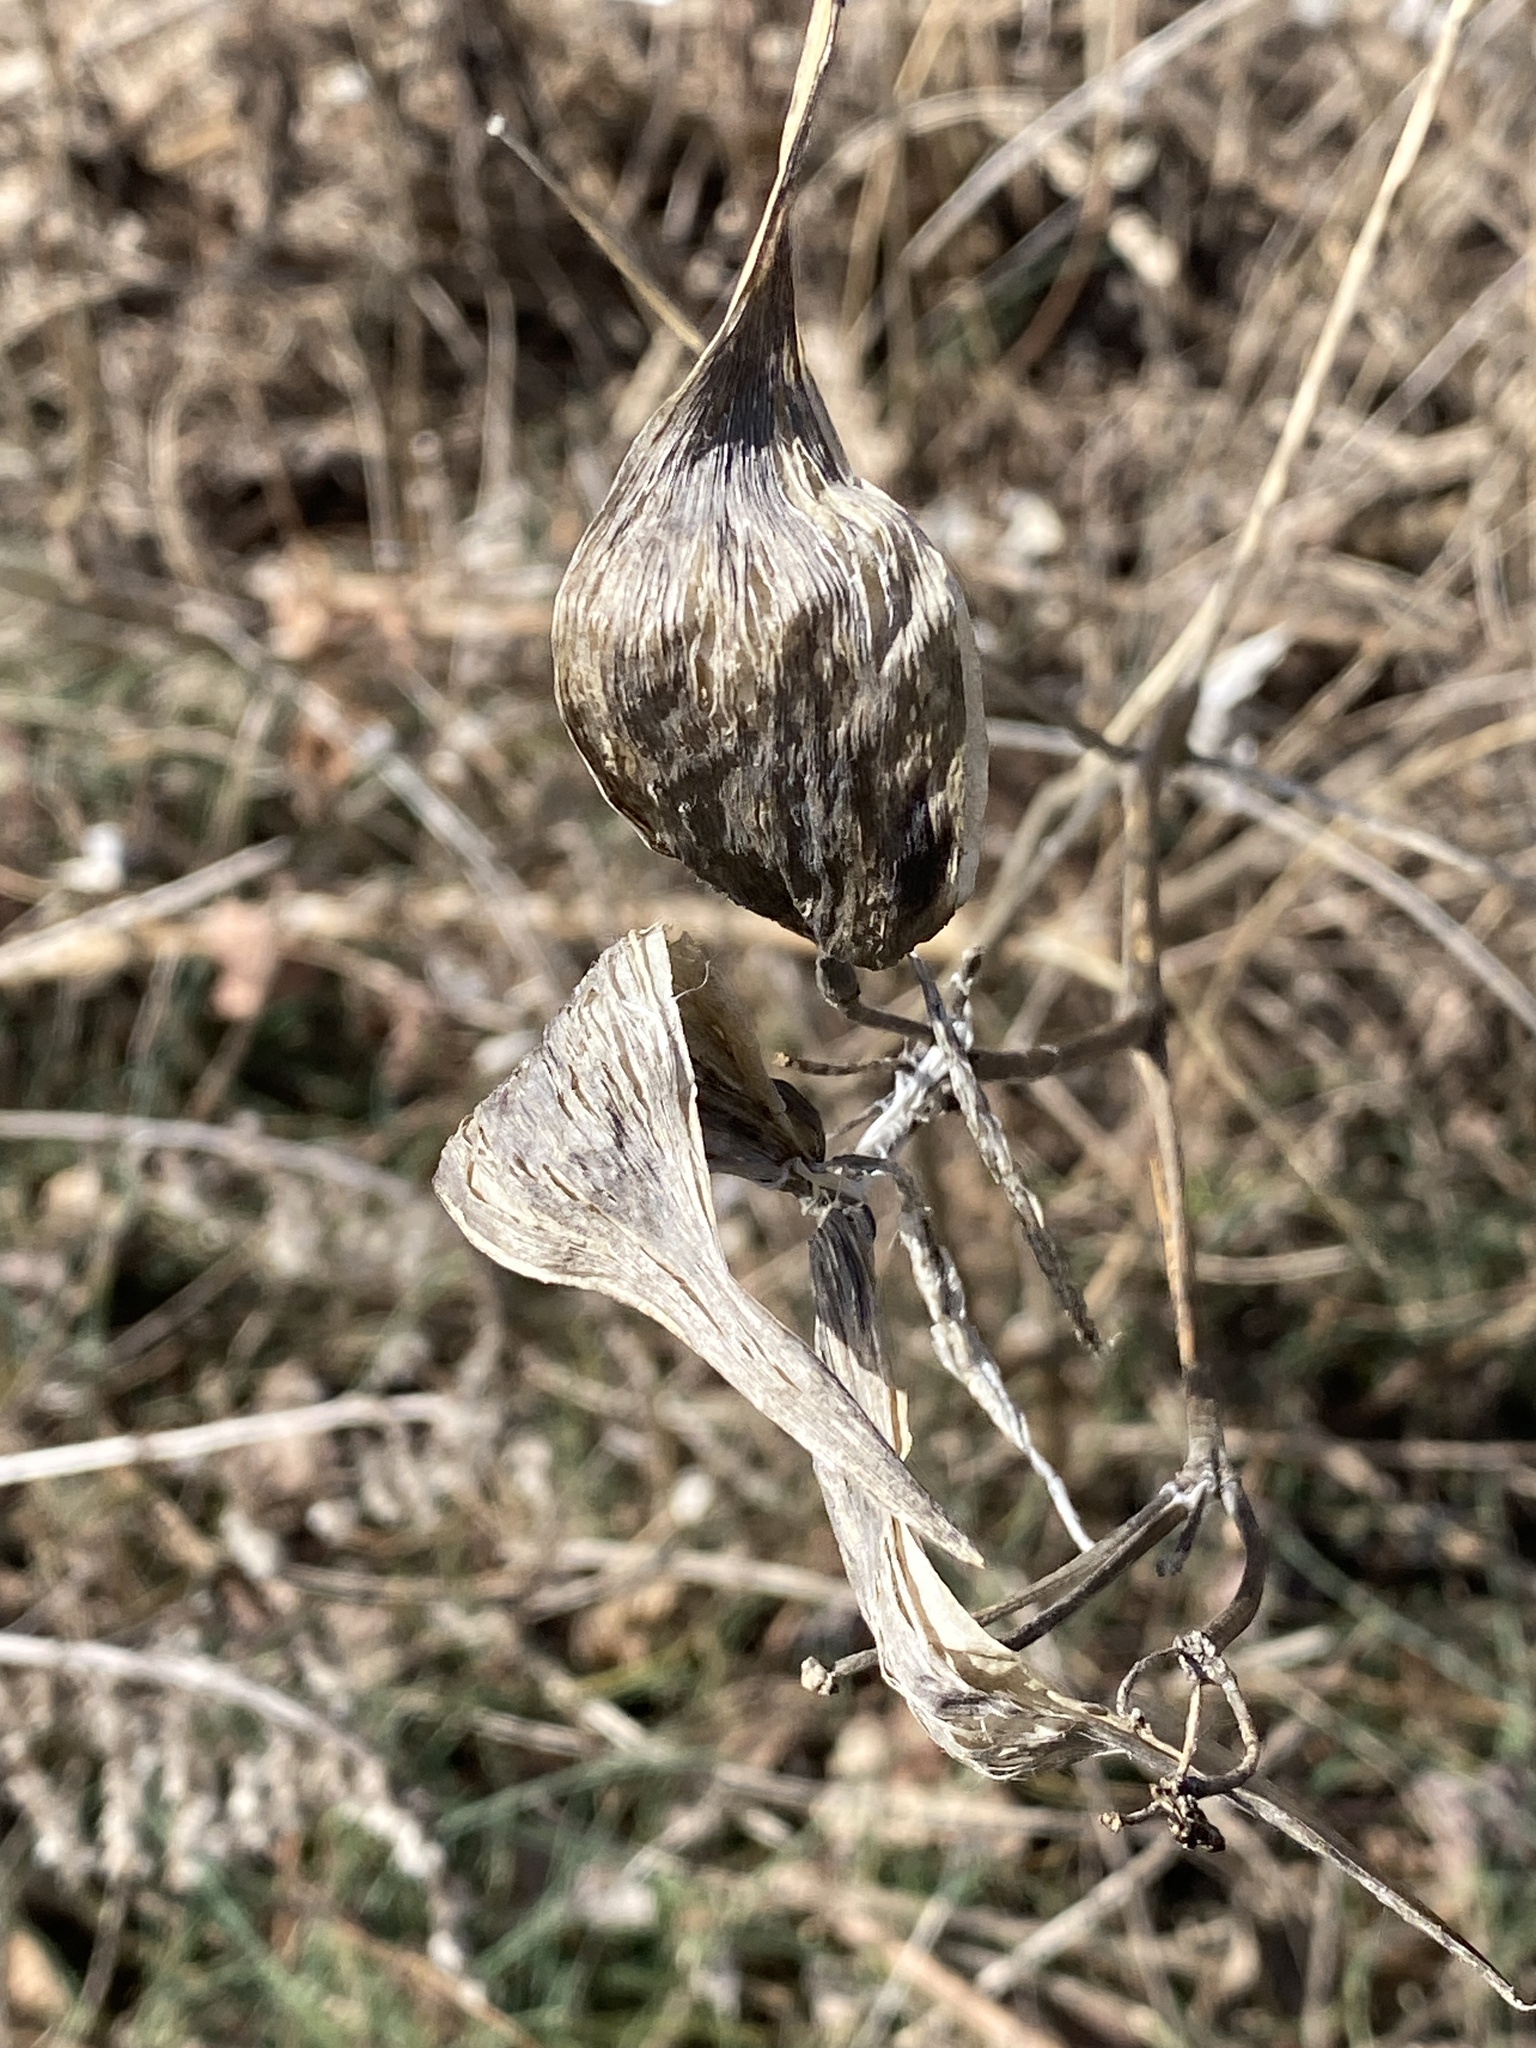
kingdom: Plantae
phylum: Tracheophyta
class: Magnoliopsida
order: Gentianales
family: Apocynaceae
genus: Asclepias
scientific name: Asclepias incarnata
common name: Swamp milkweed
